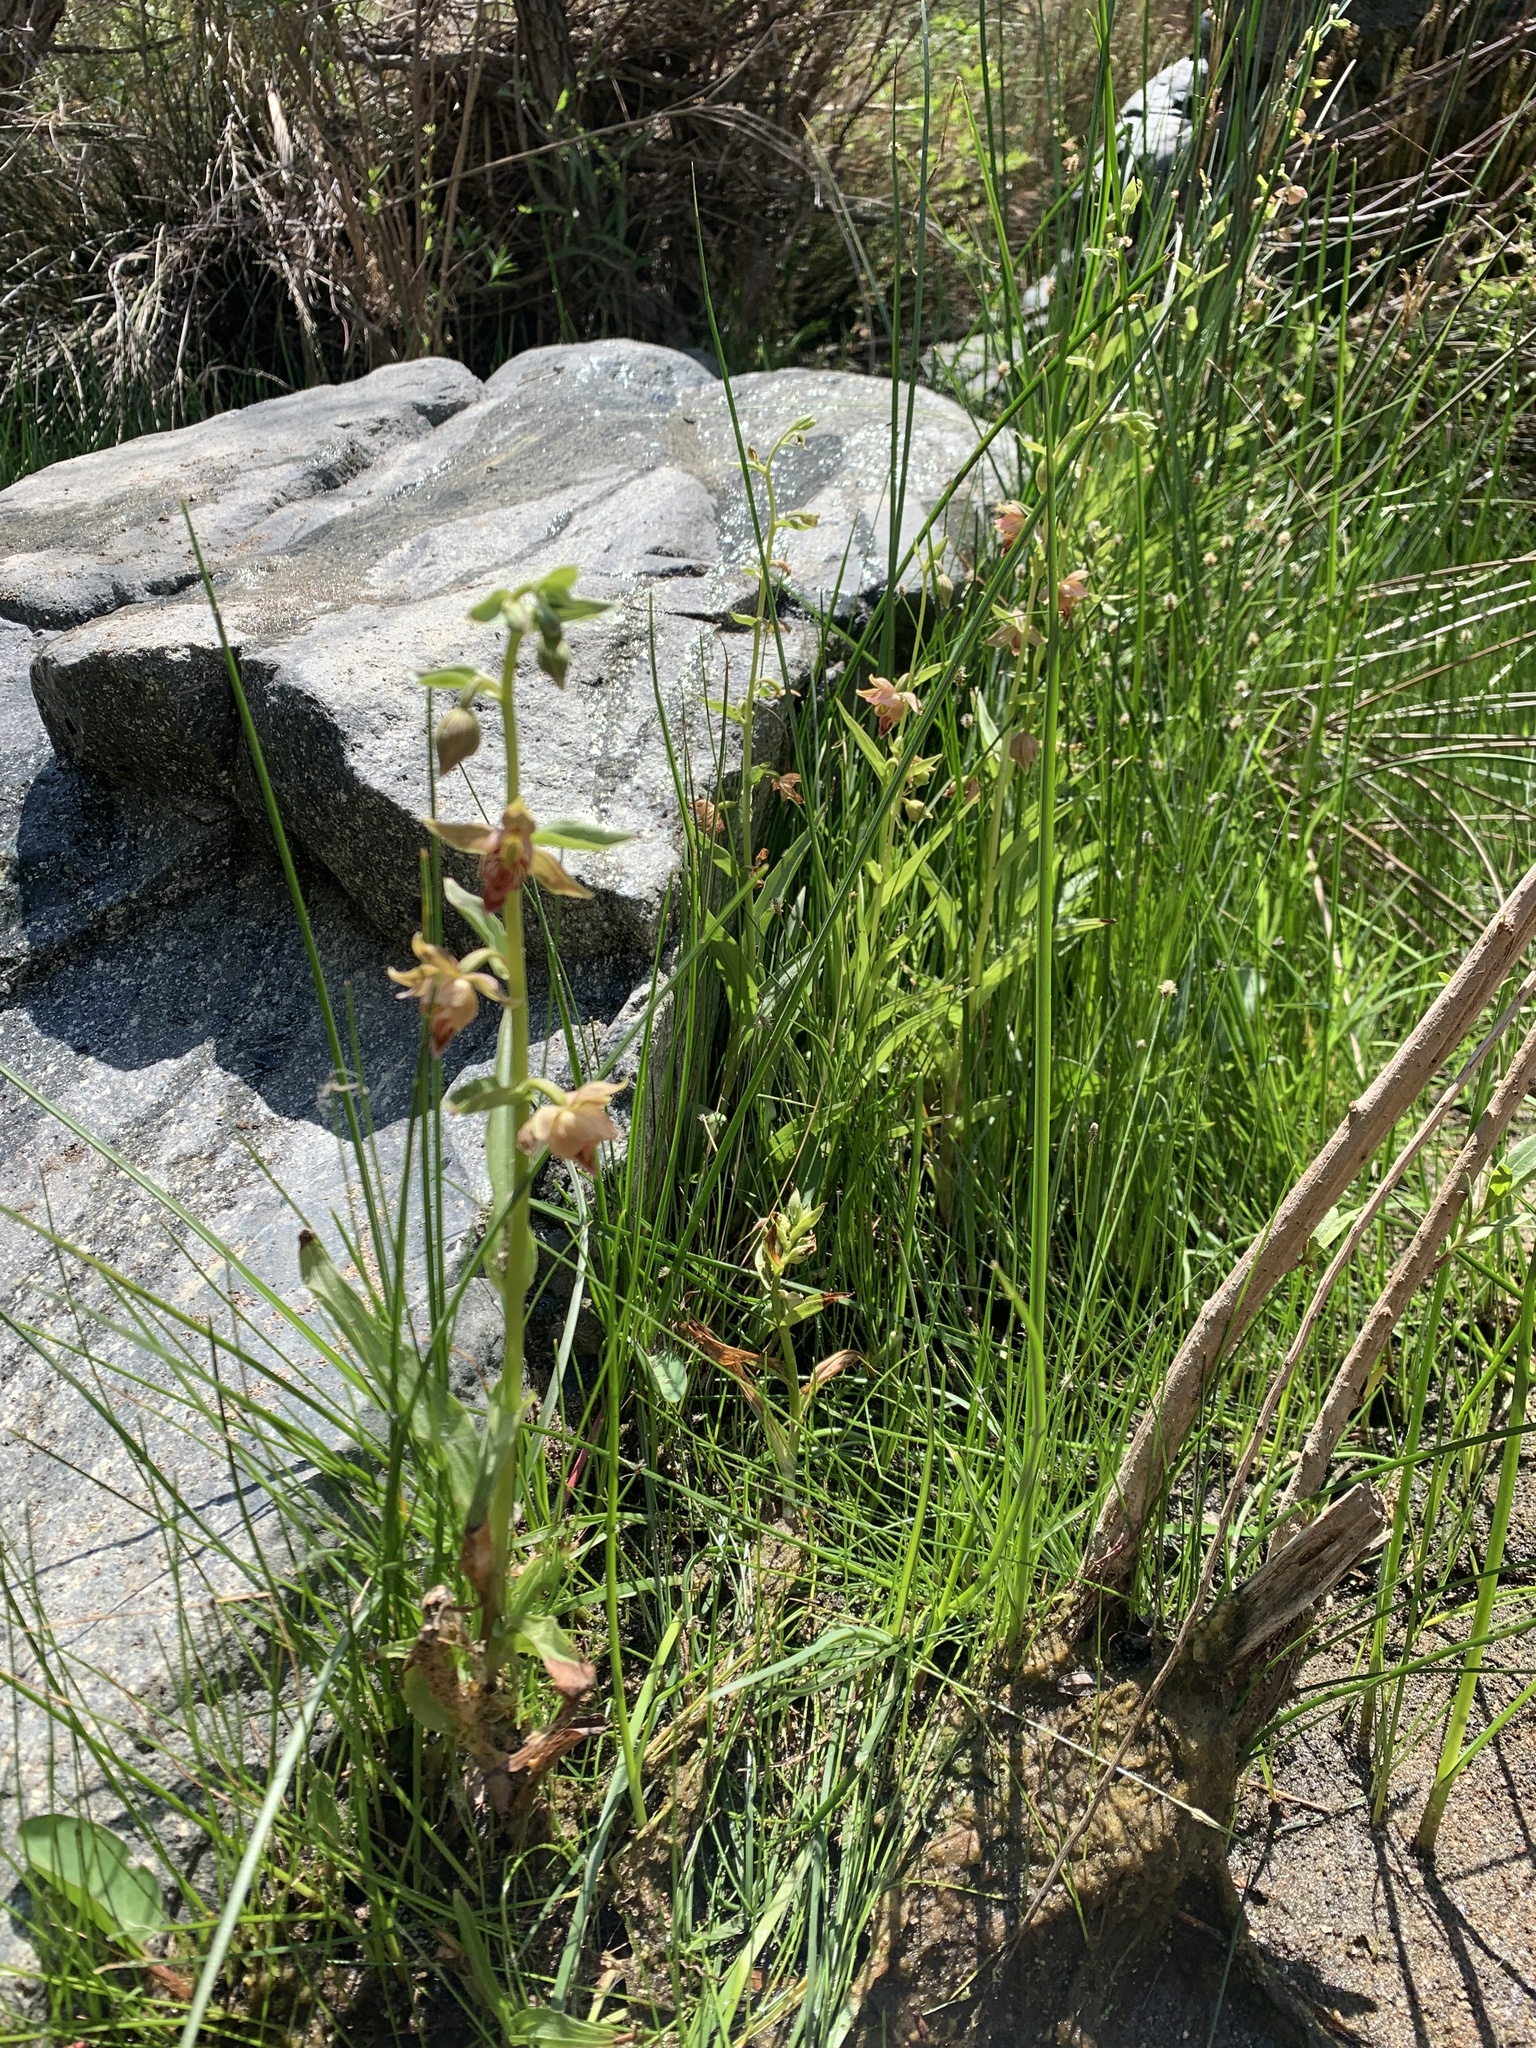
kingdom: Plantae
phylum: Tracheophyta
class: Liliopsida
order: Asparagales
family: Orchidaceae
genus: Epipactis
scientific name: Epipactis gigantea
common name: Chatterbox
